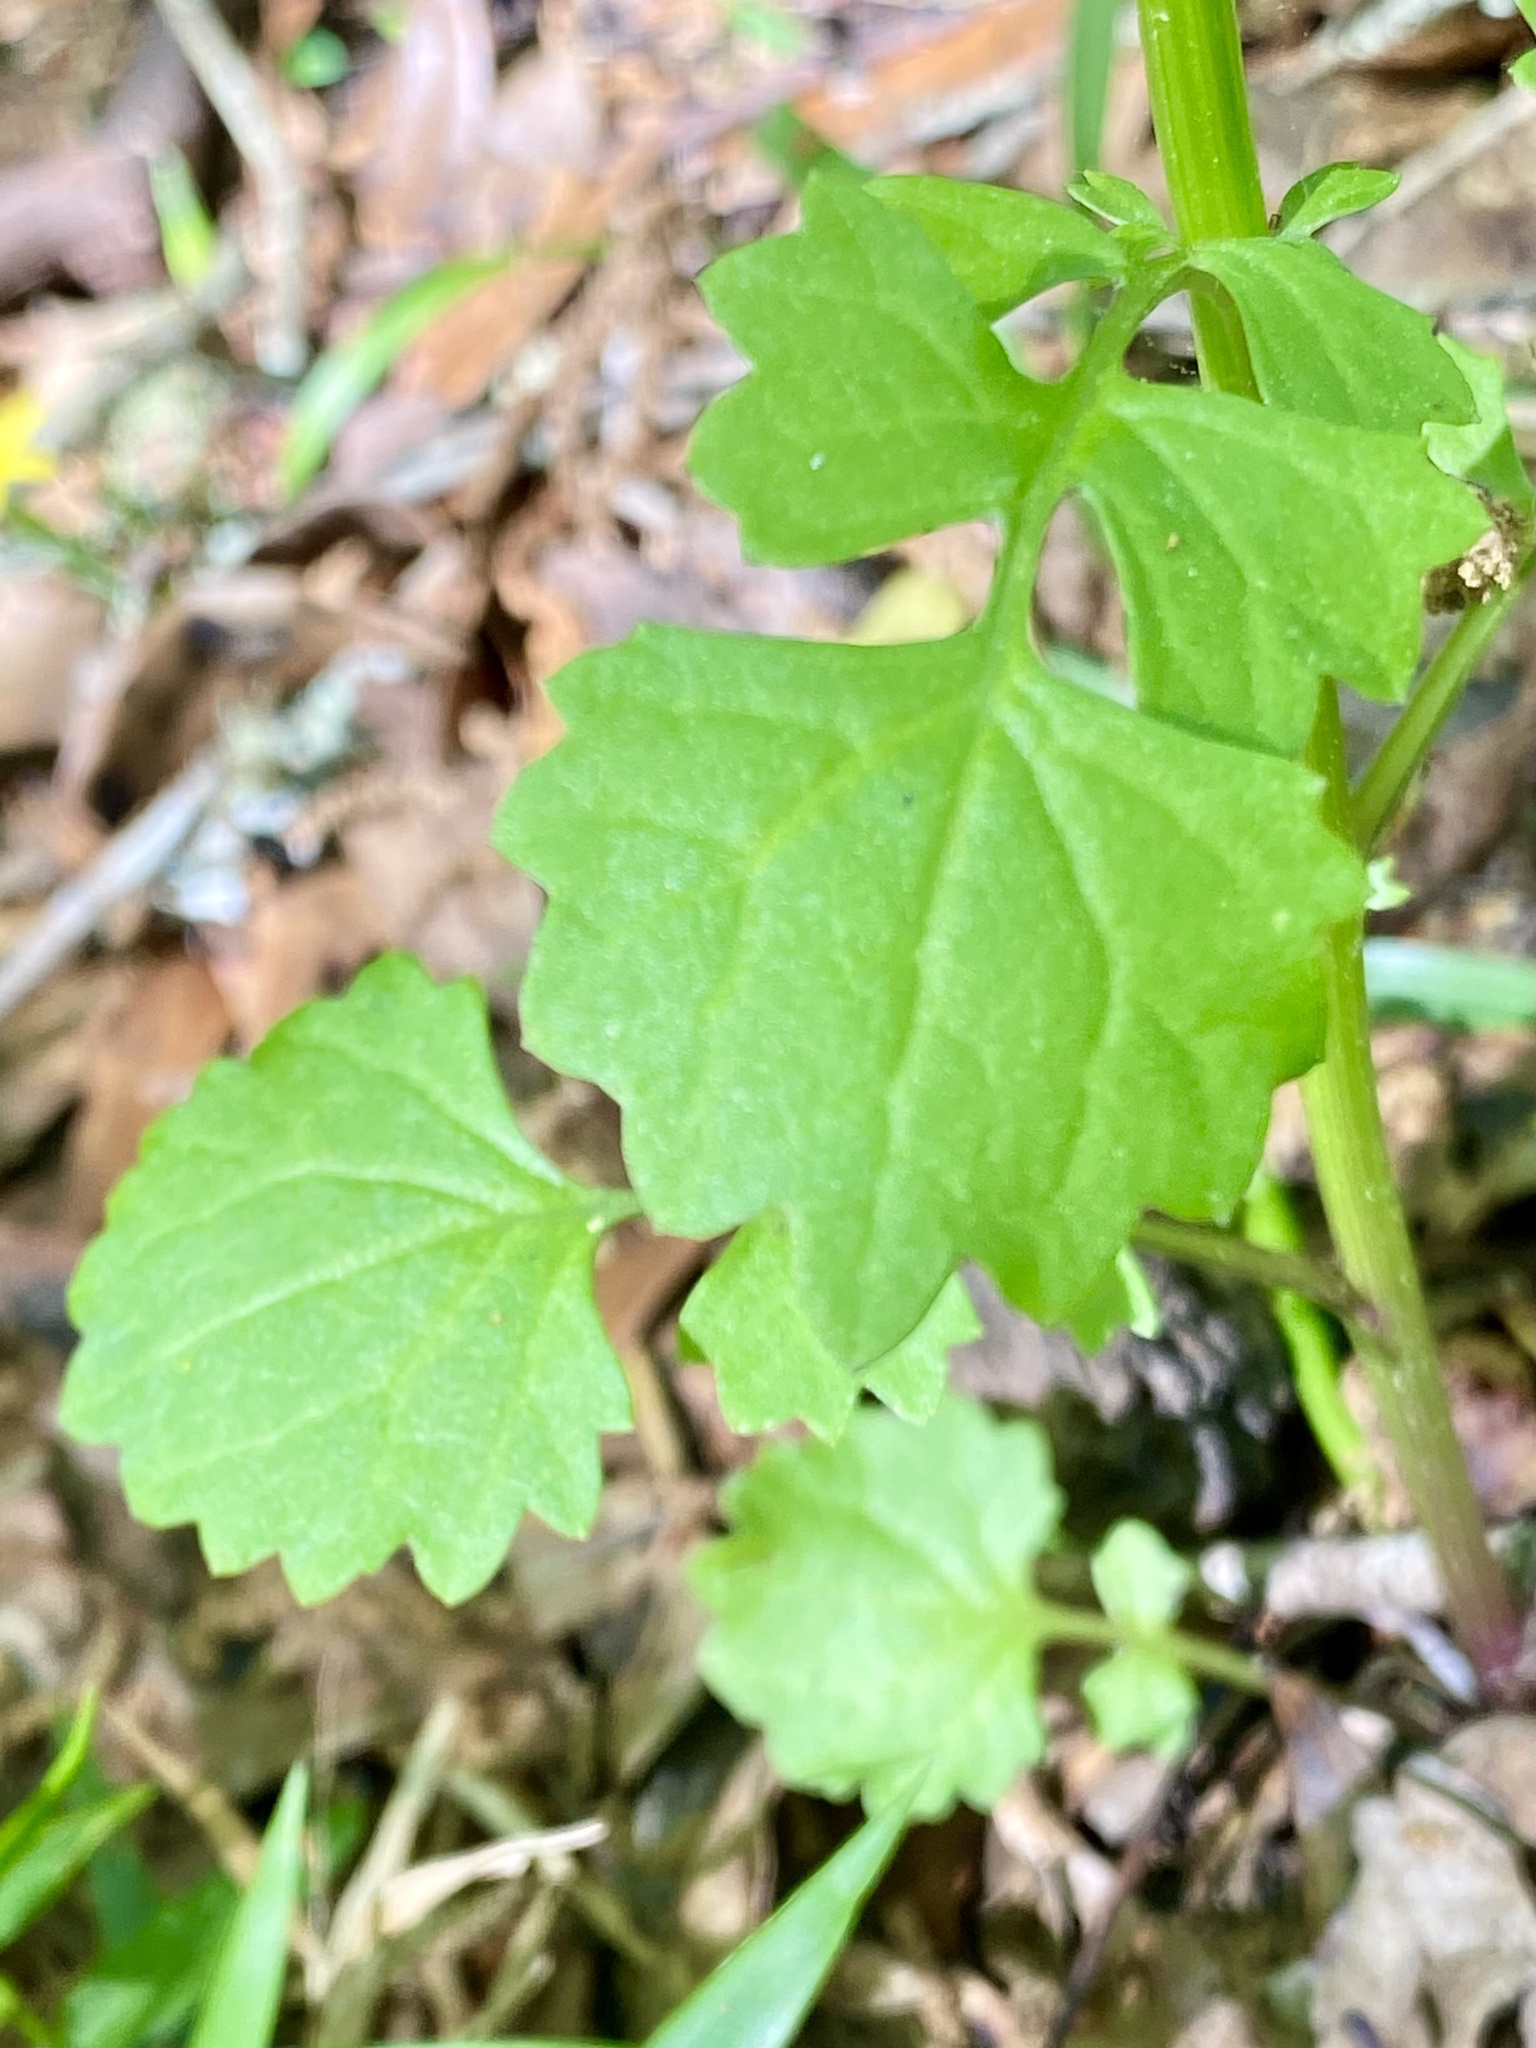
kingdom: Plantae
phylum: Tracheophyta
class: Magnoliopsida
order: Asterales
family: Asteraceae
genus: Packera
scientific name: Packera glabella
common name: Butterweed
